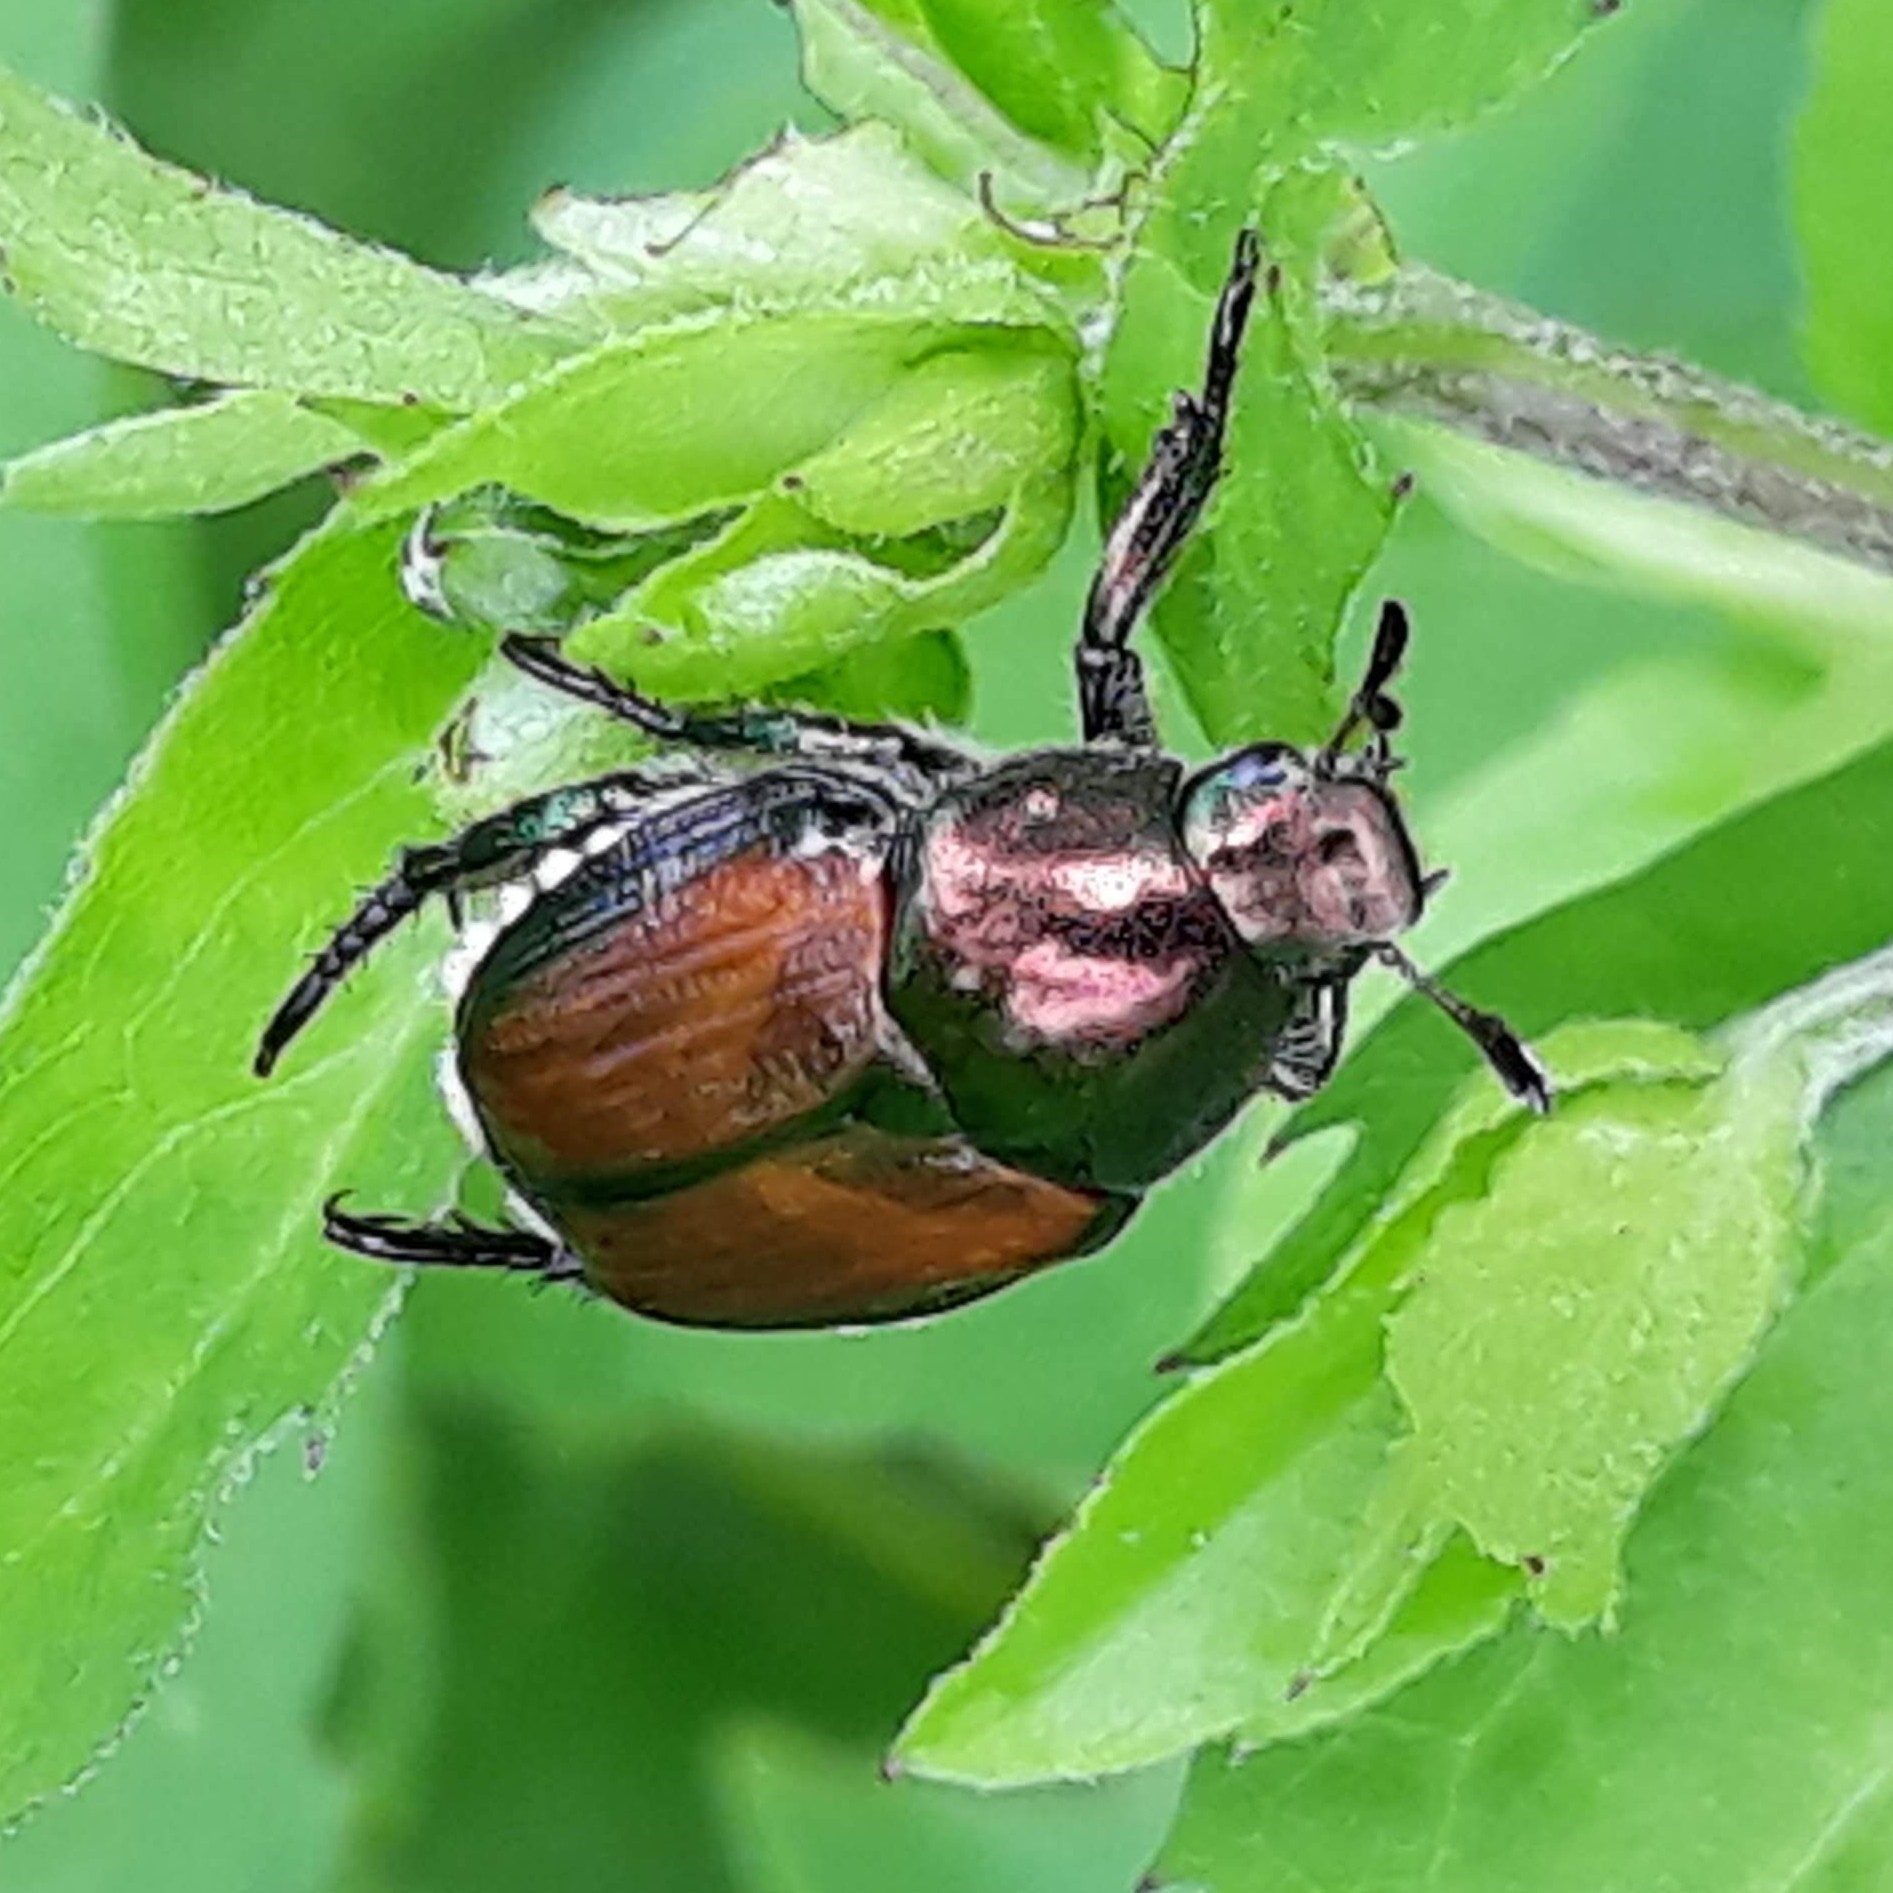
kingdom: Animalia
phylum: Arthropoda
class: Insecta
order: Coleoptera
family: Scarabaeidae
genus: Popillia
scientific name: Popillia japonica
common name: Japanese beetle
